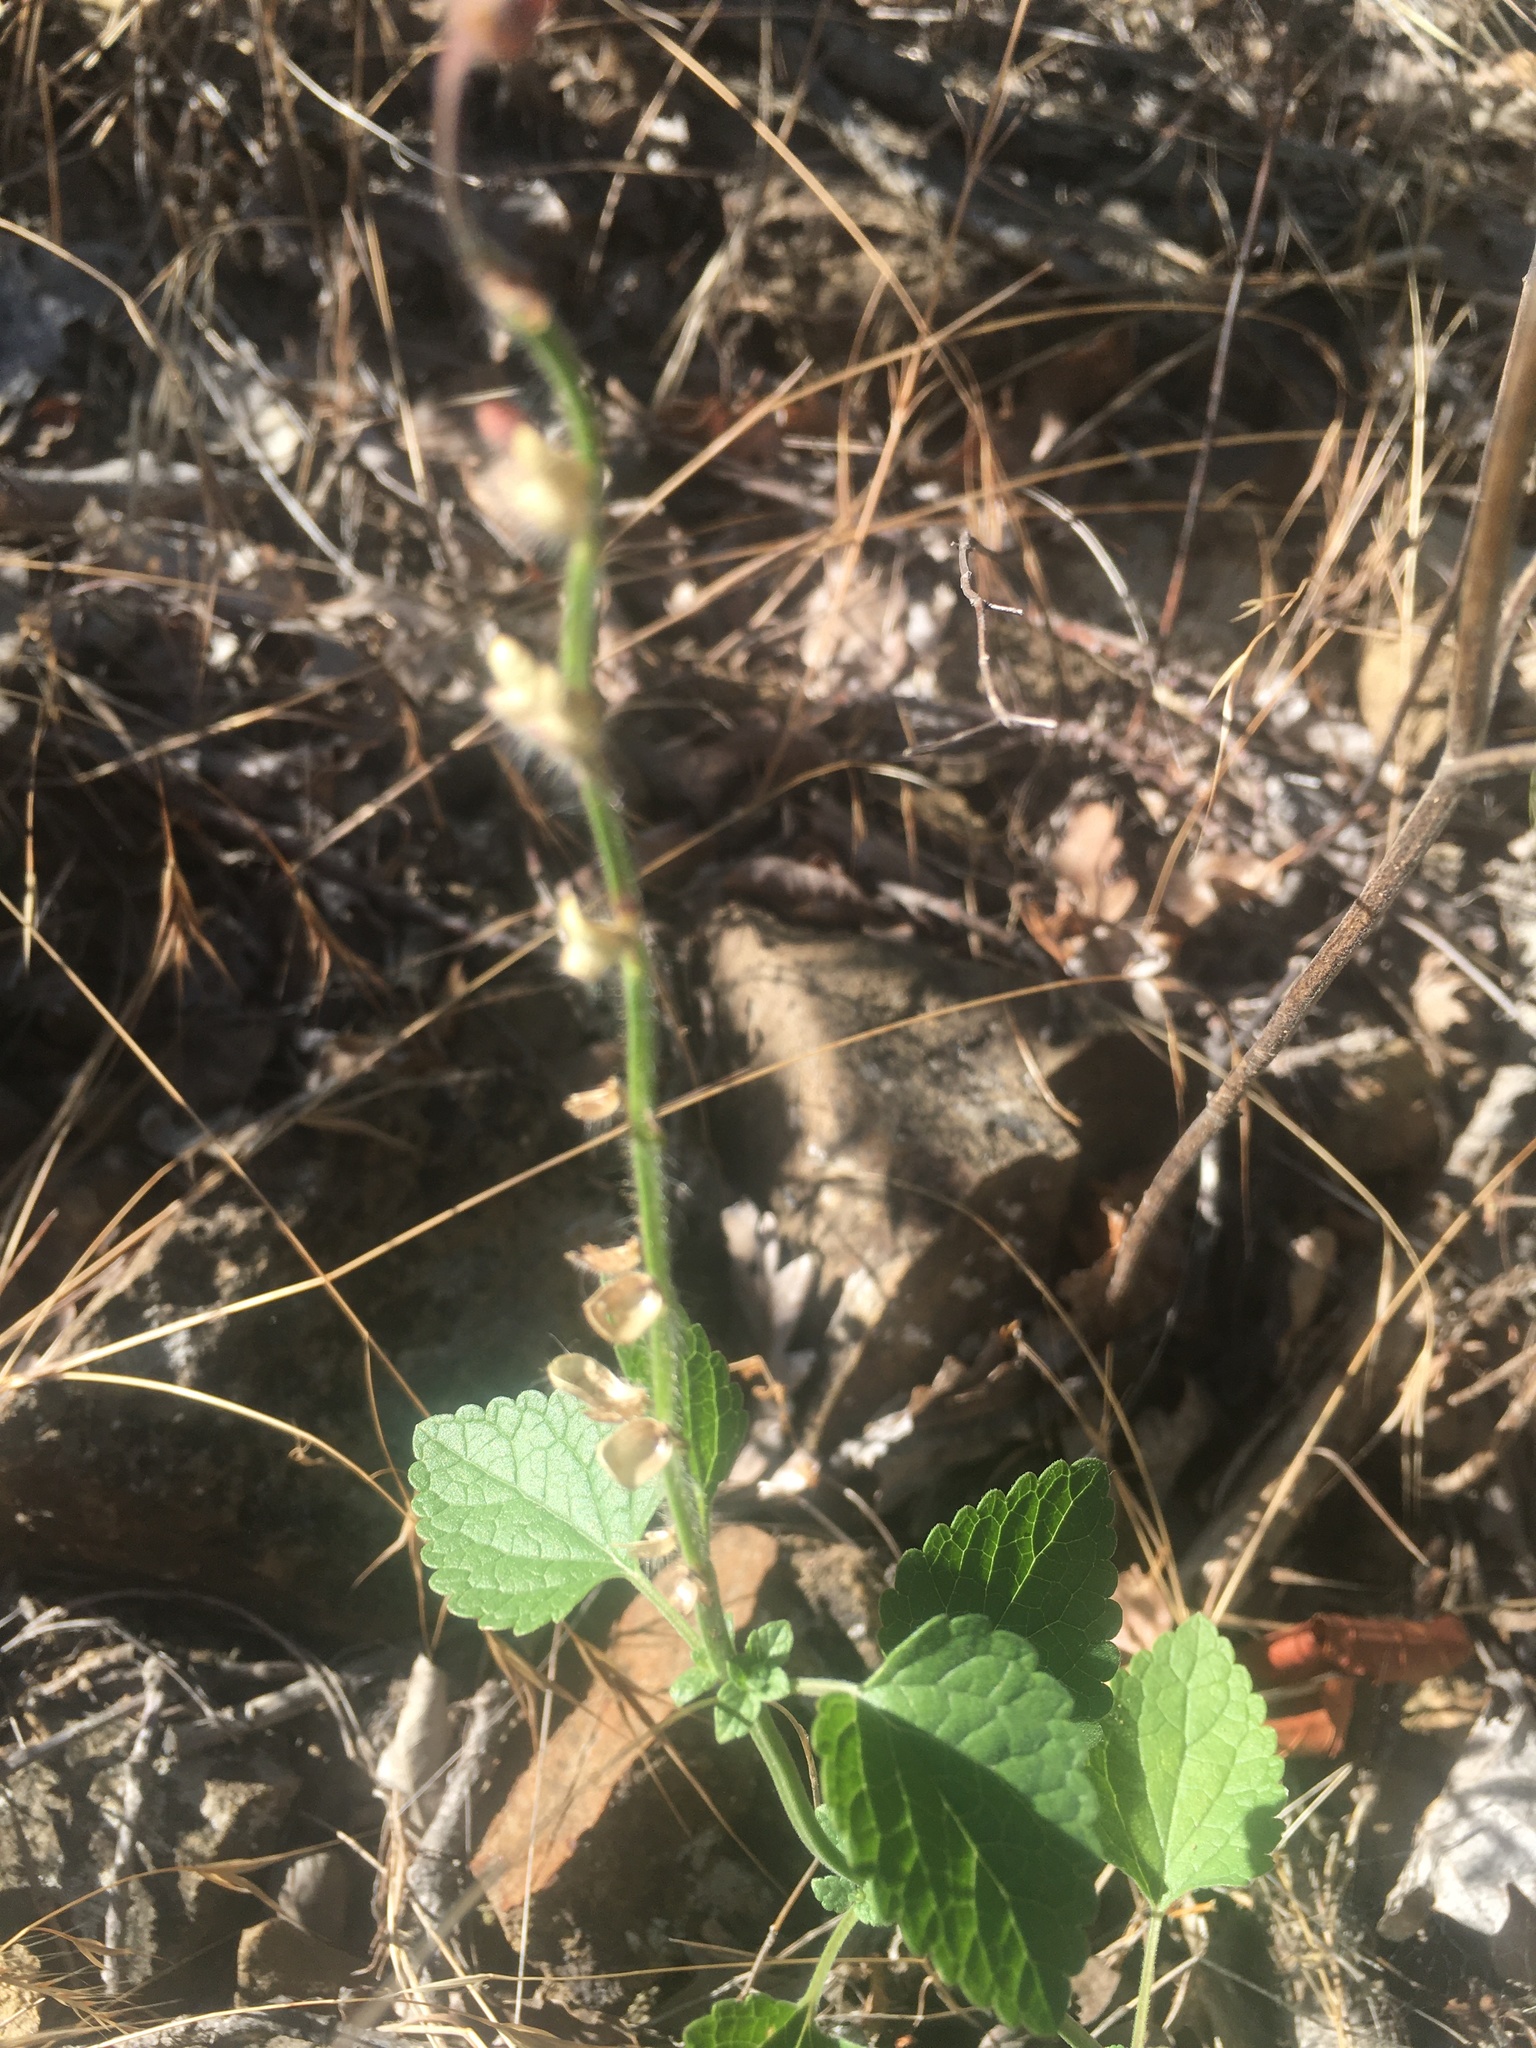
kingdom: Plantae
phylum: Tracheophyta
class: Magnoliopsida
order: Lamiales
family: Lamiaceae
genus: Scutellaria
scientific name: Scutellaria albida
